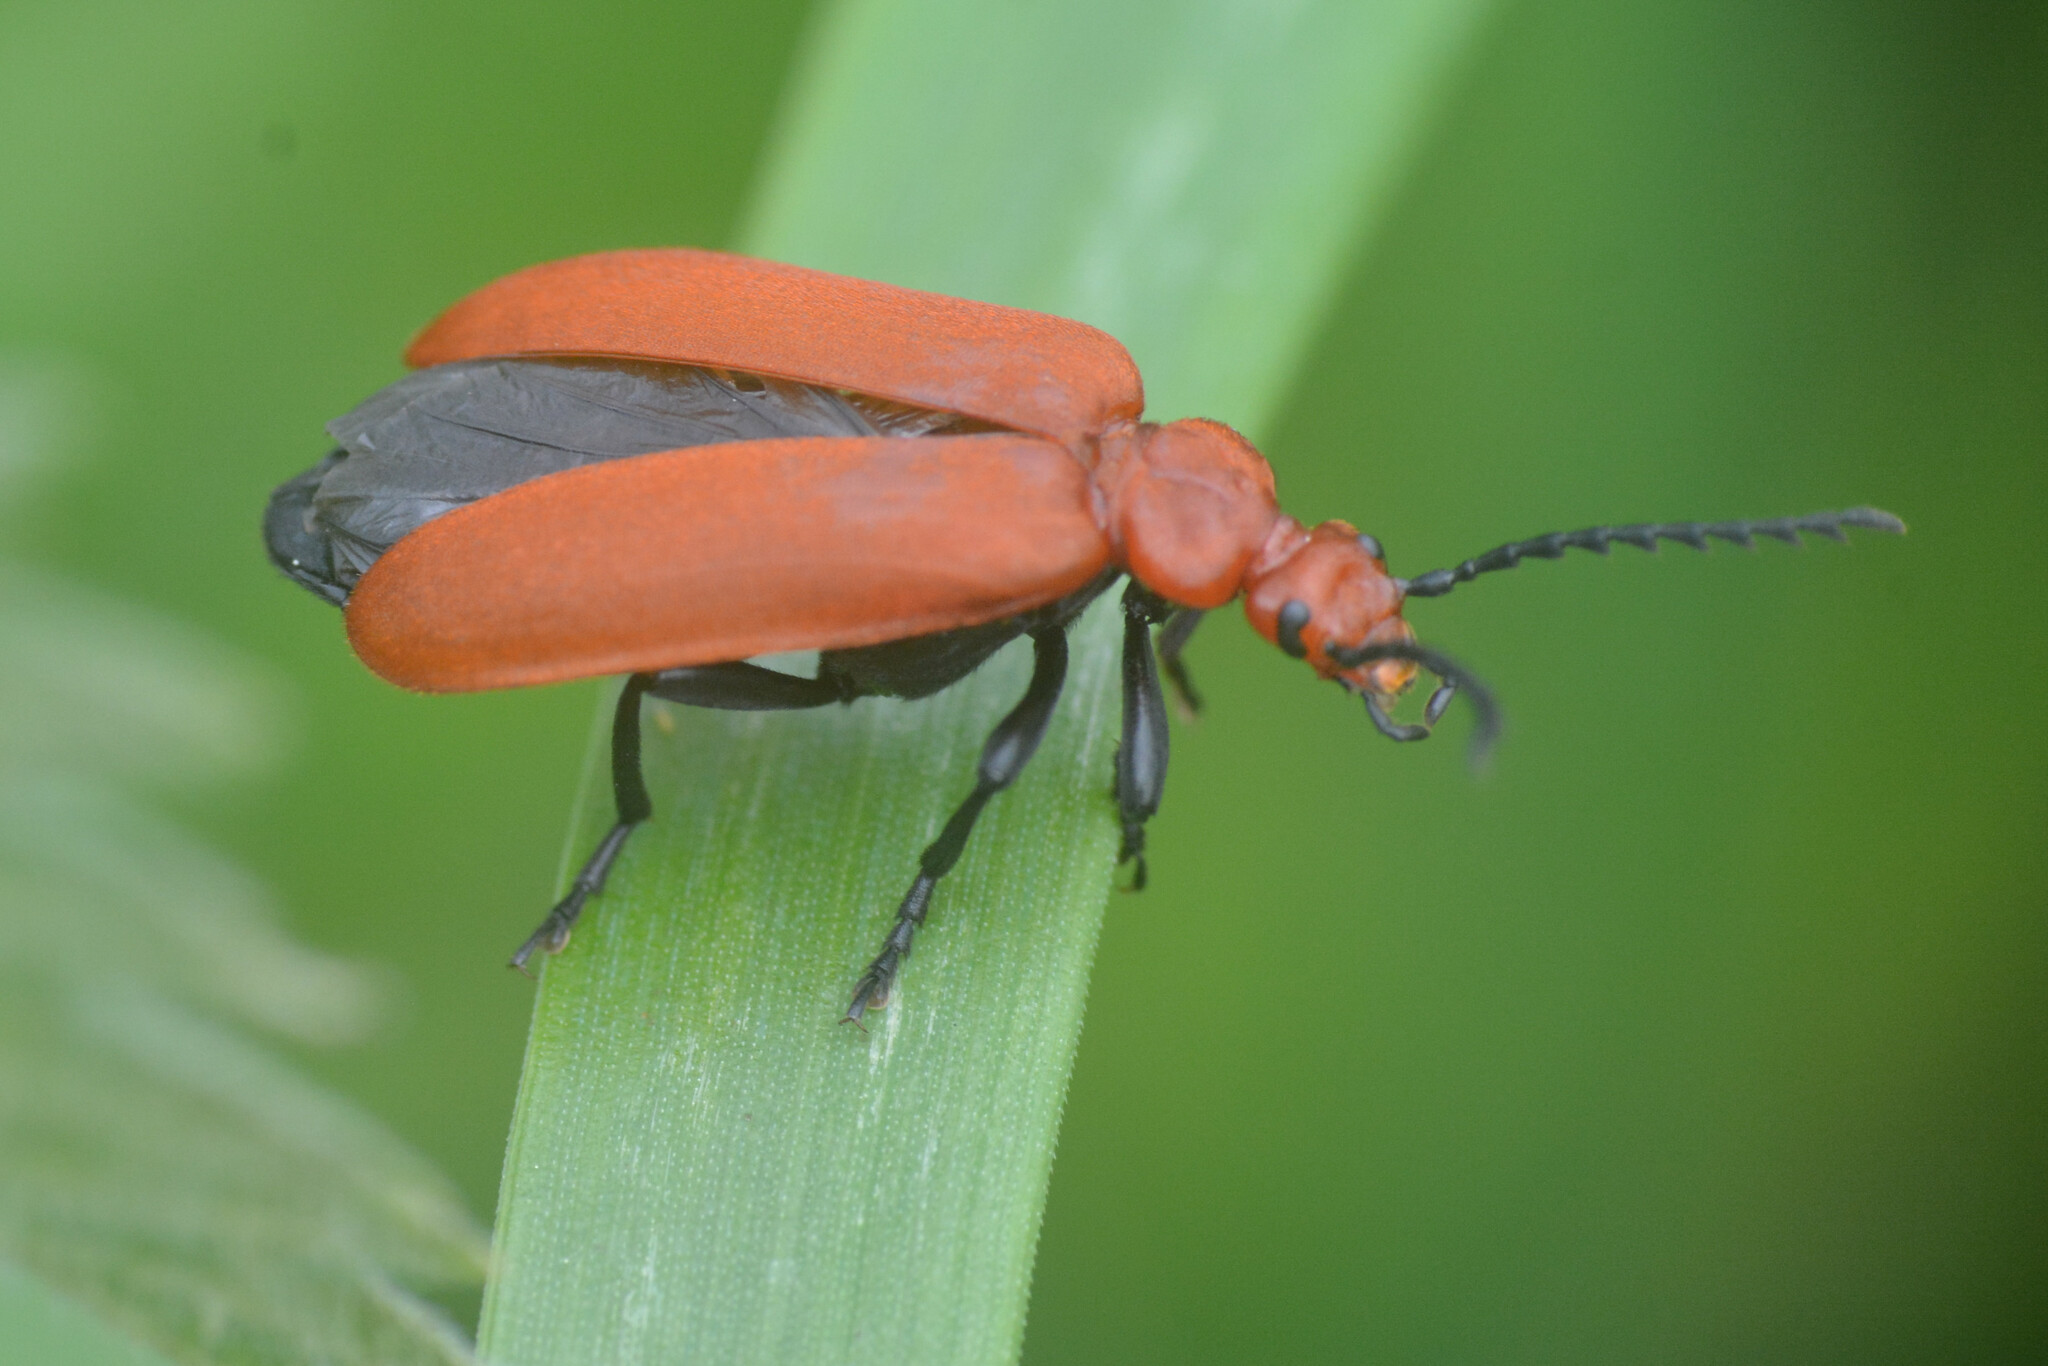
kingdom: Animalia
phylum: Arthropoda
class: Insecta
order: Coleoptera
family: Pyrochroidae
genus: Pyrochroa
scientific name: Pyrochroa serraticornis
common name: Red-headed cardinal beetle
